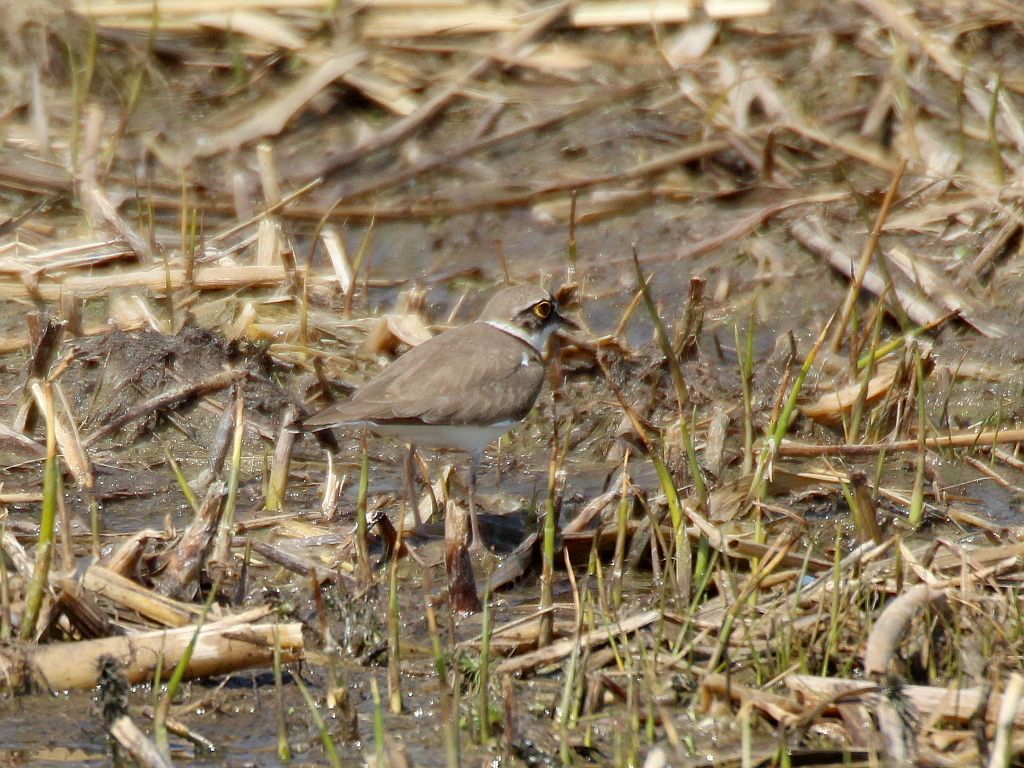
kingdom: Animalia
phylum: Chordata
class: Aves
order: Charadriiformes
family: Charadriidae
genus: Charadrius
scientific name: Charadrius dubius
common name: Little ringed plover
